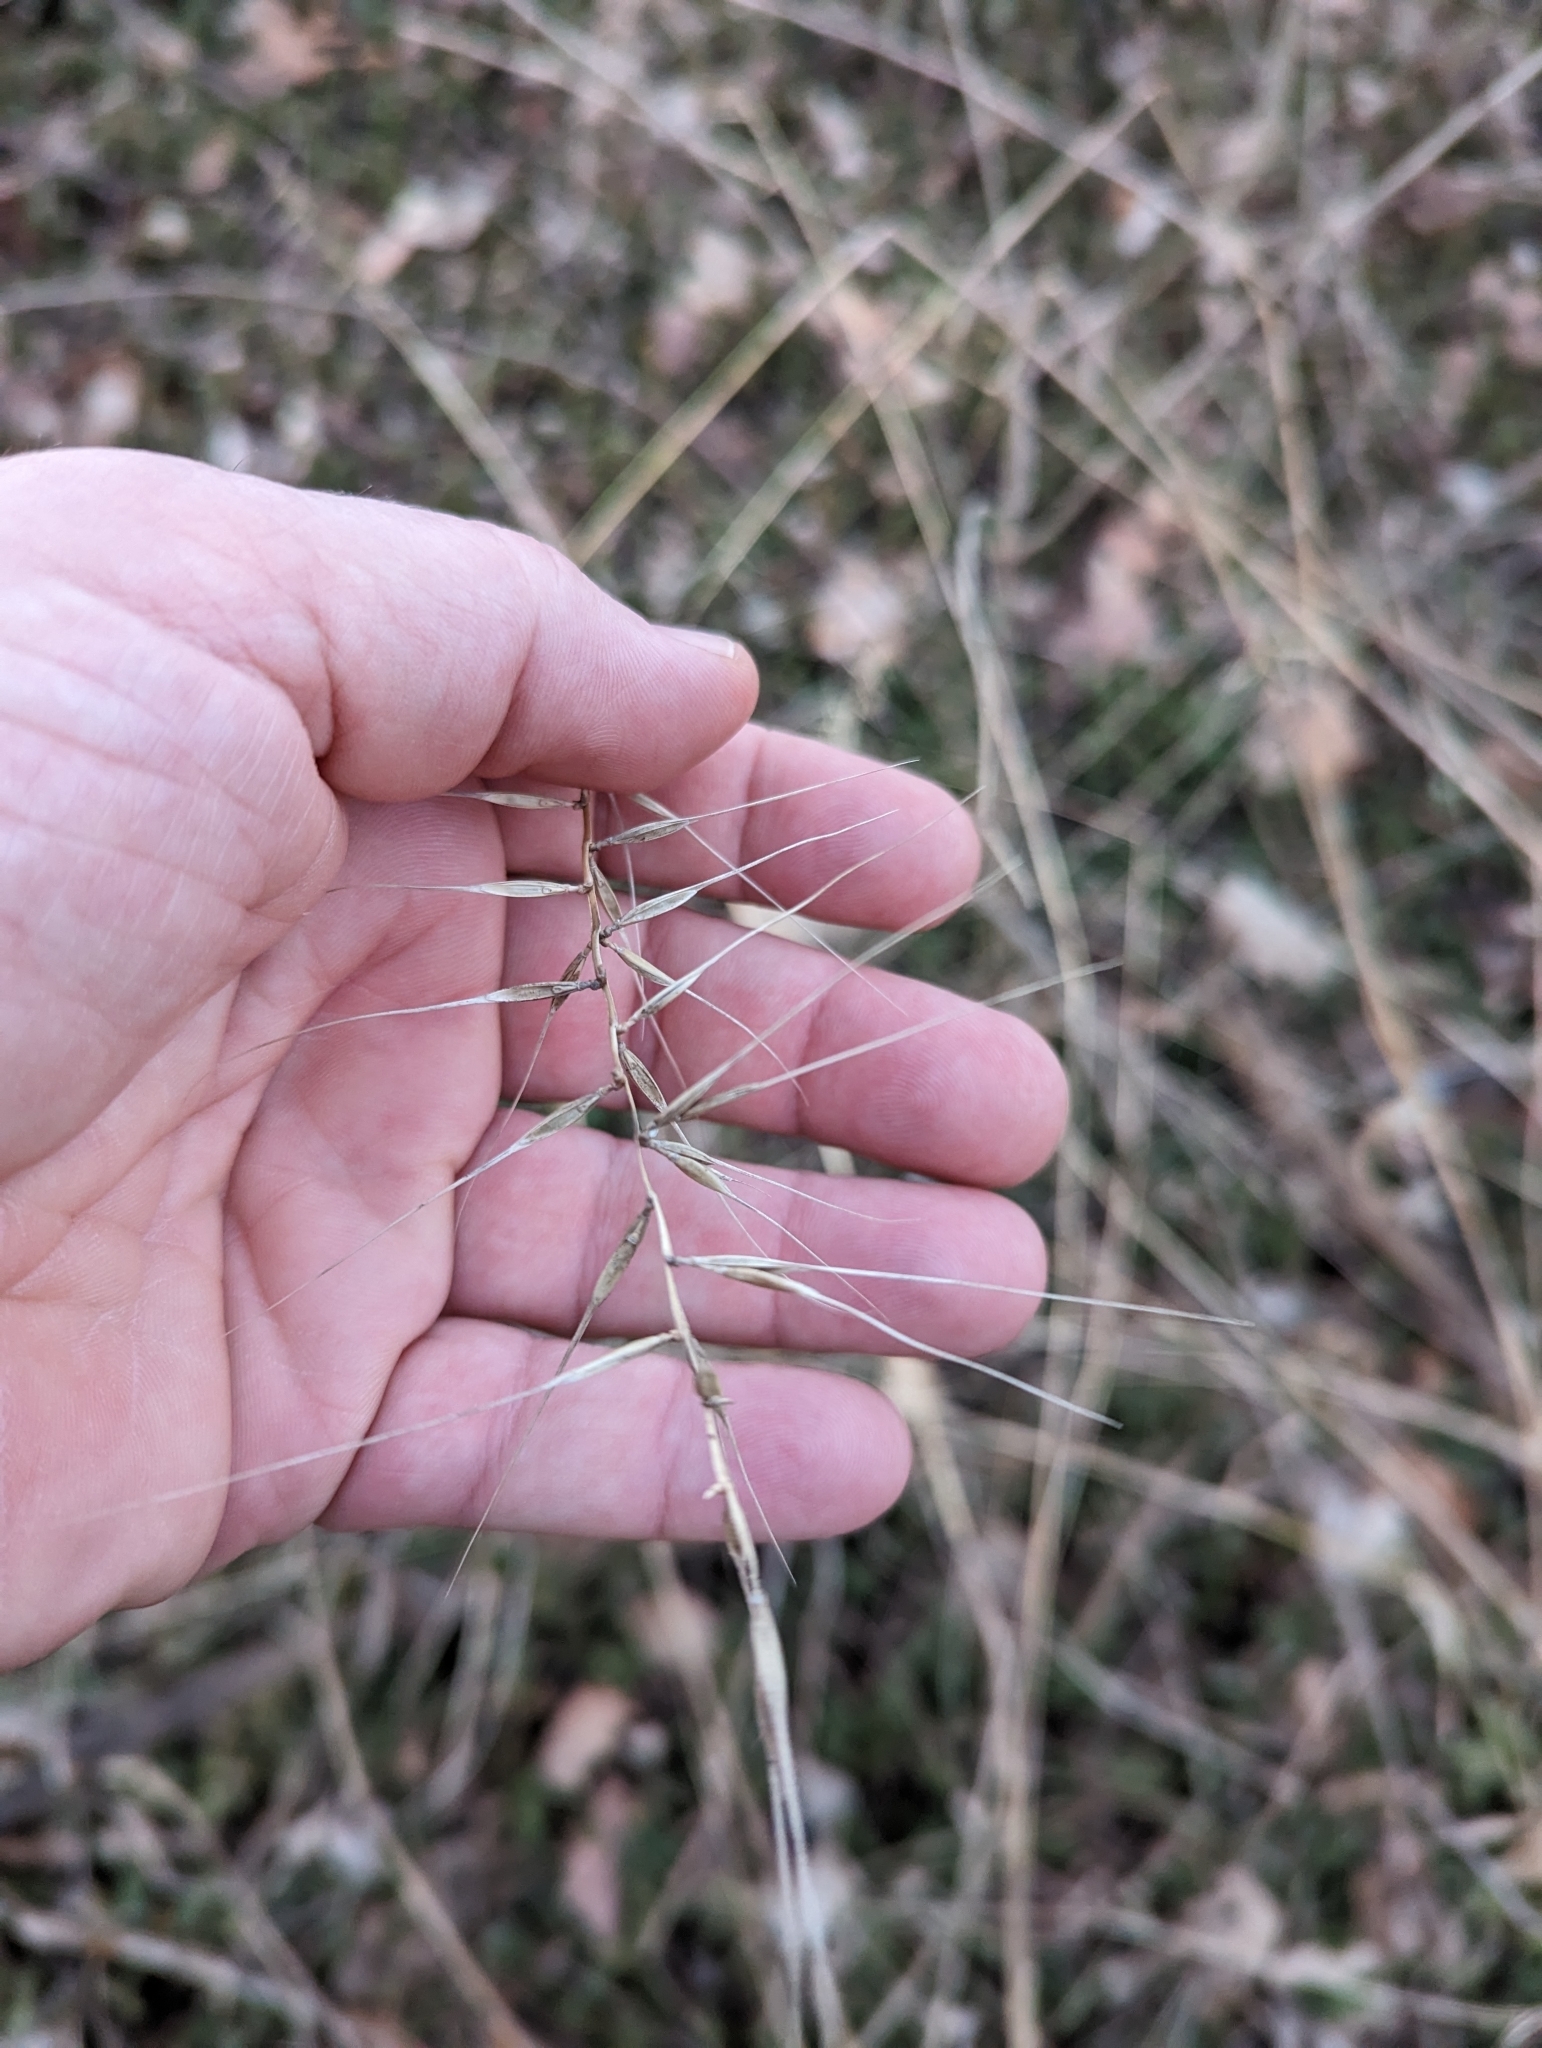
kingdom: Plantae
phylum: Tracheophyta
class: Liliopsida
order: Poales
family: Poaceae
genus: Elymus
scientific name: Elymus hystrix
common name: Bottlebrush grass
